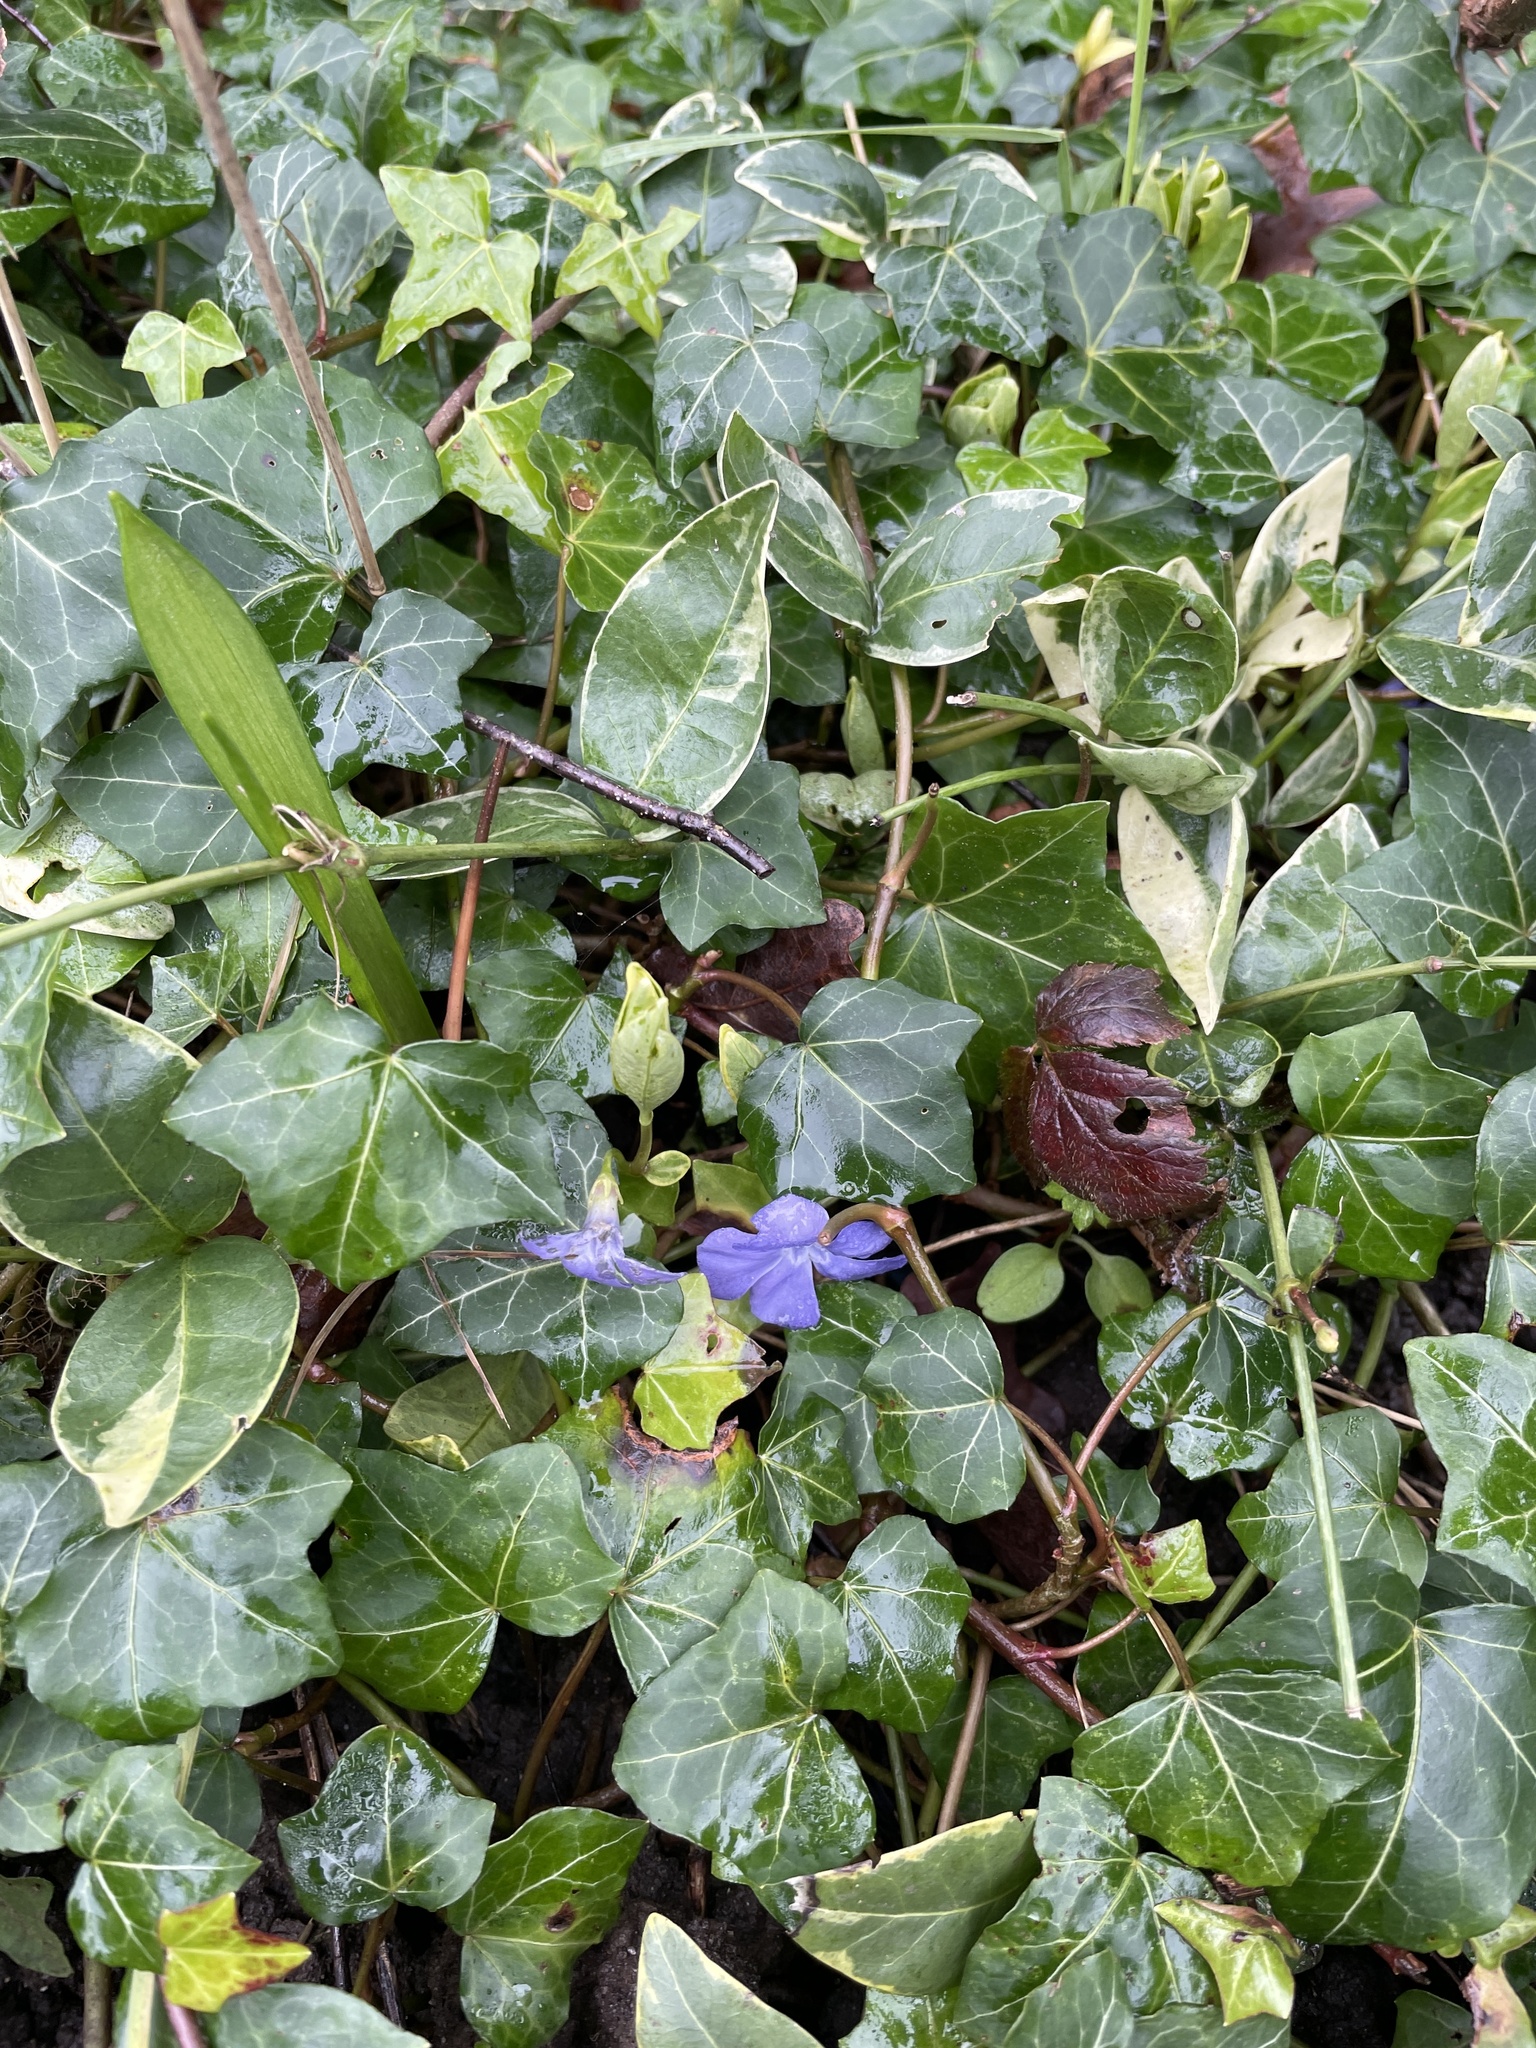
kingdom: Plantae
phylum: Tracheophyta
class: Magnoliopsida
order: Gentianales
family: Apocynaceae
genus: Vinca
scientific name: Vinca minor
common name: Lesser periwinkle
